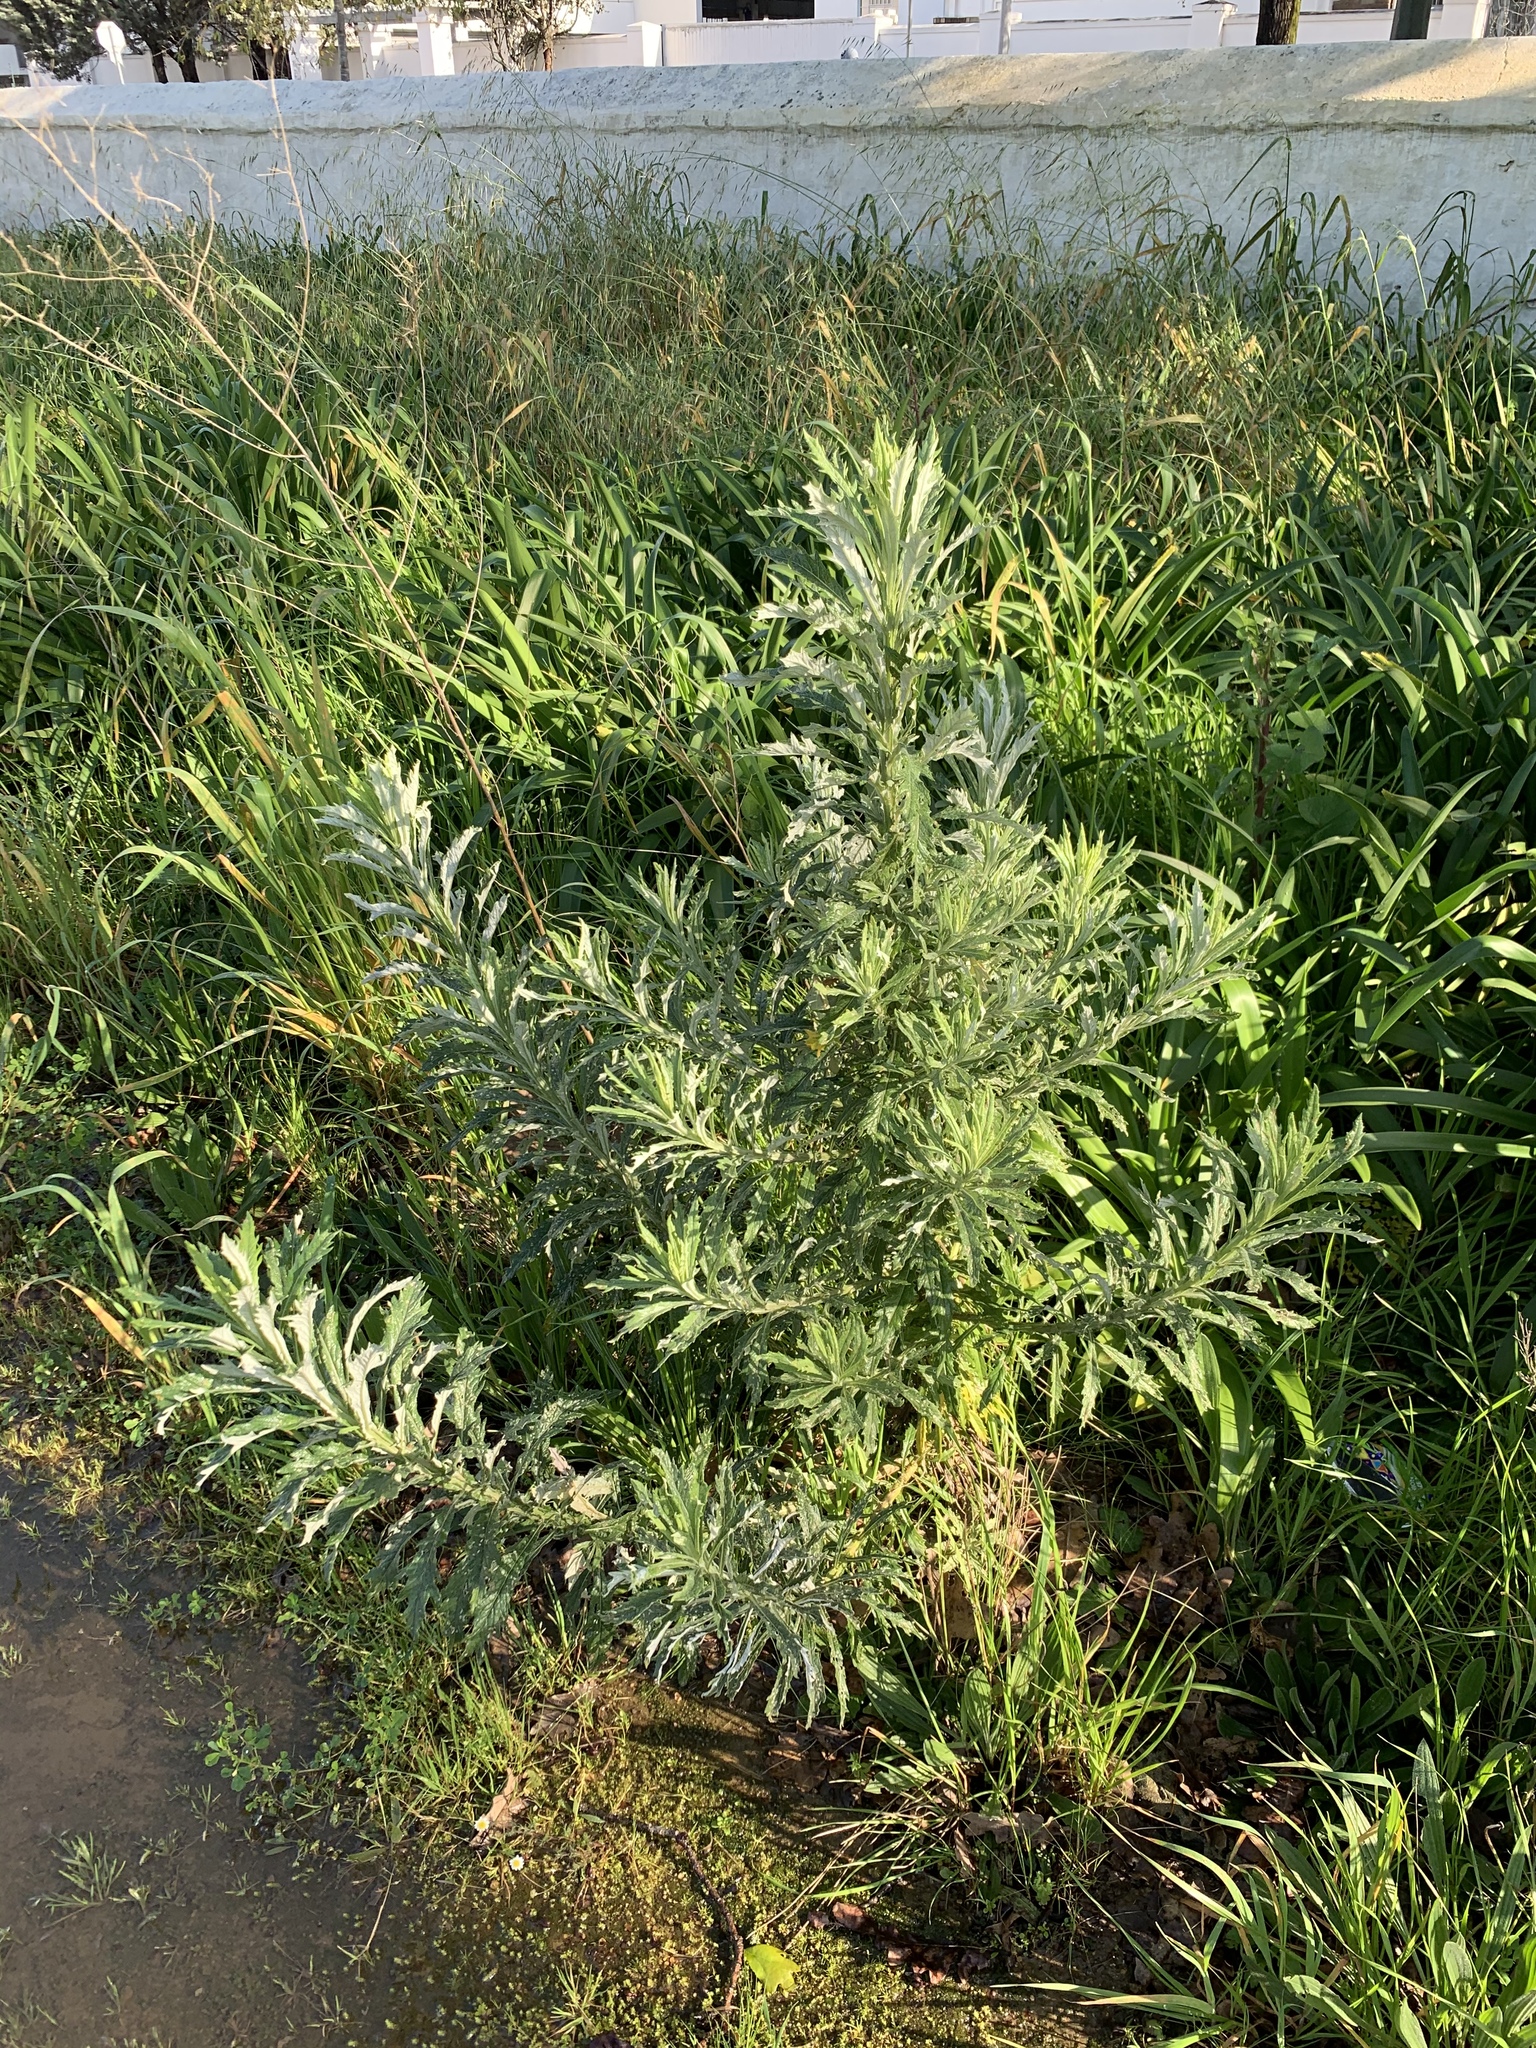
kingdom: Plantae
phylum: Tracheophyta
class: Magnoliopsida
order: Asterales
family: Asteraceae
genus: Senecio
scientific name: Senecio pterophorus
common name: Shoddy ragwort
